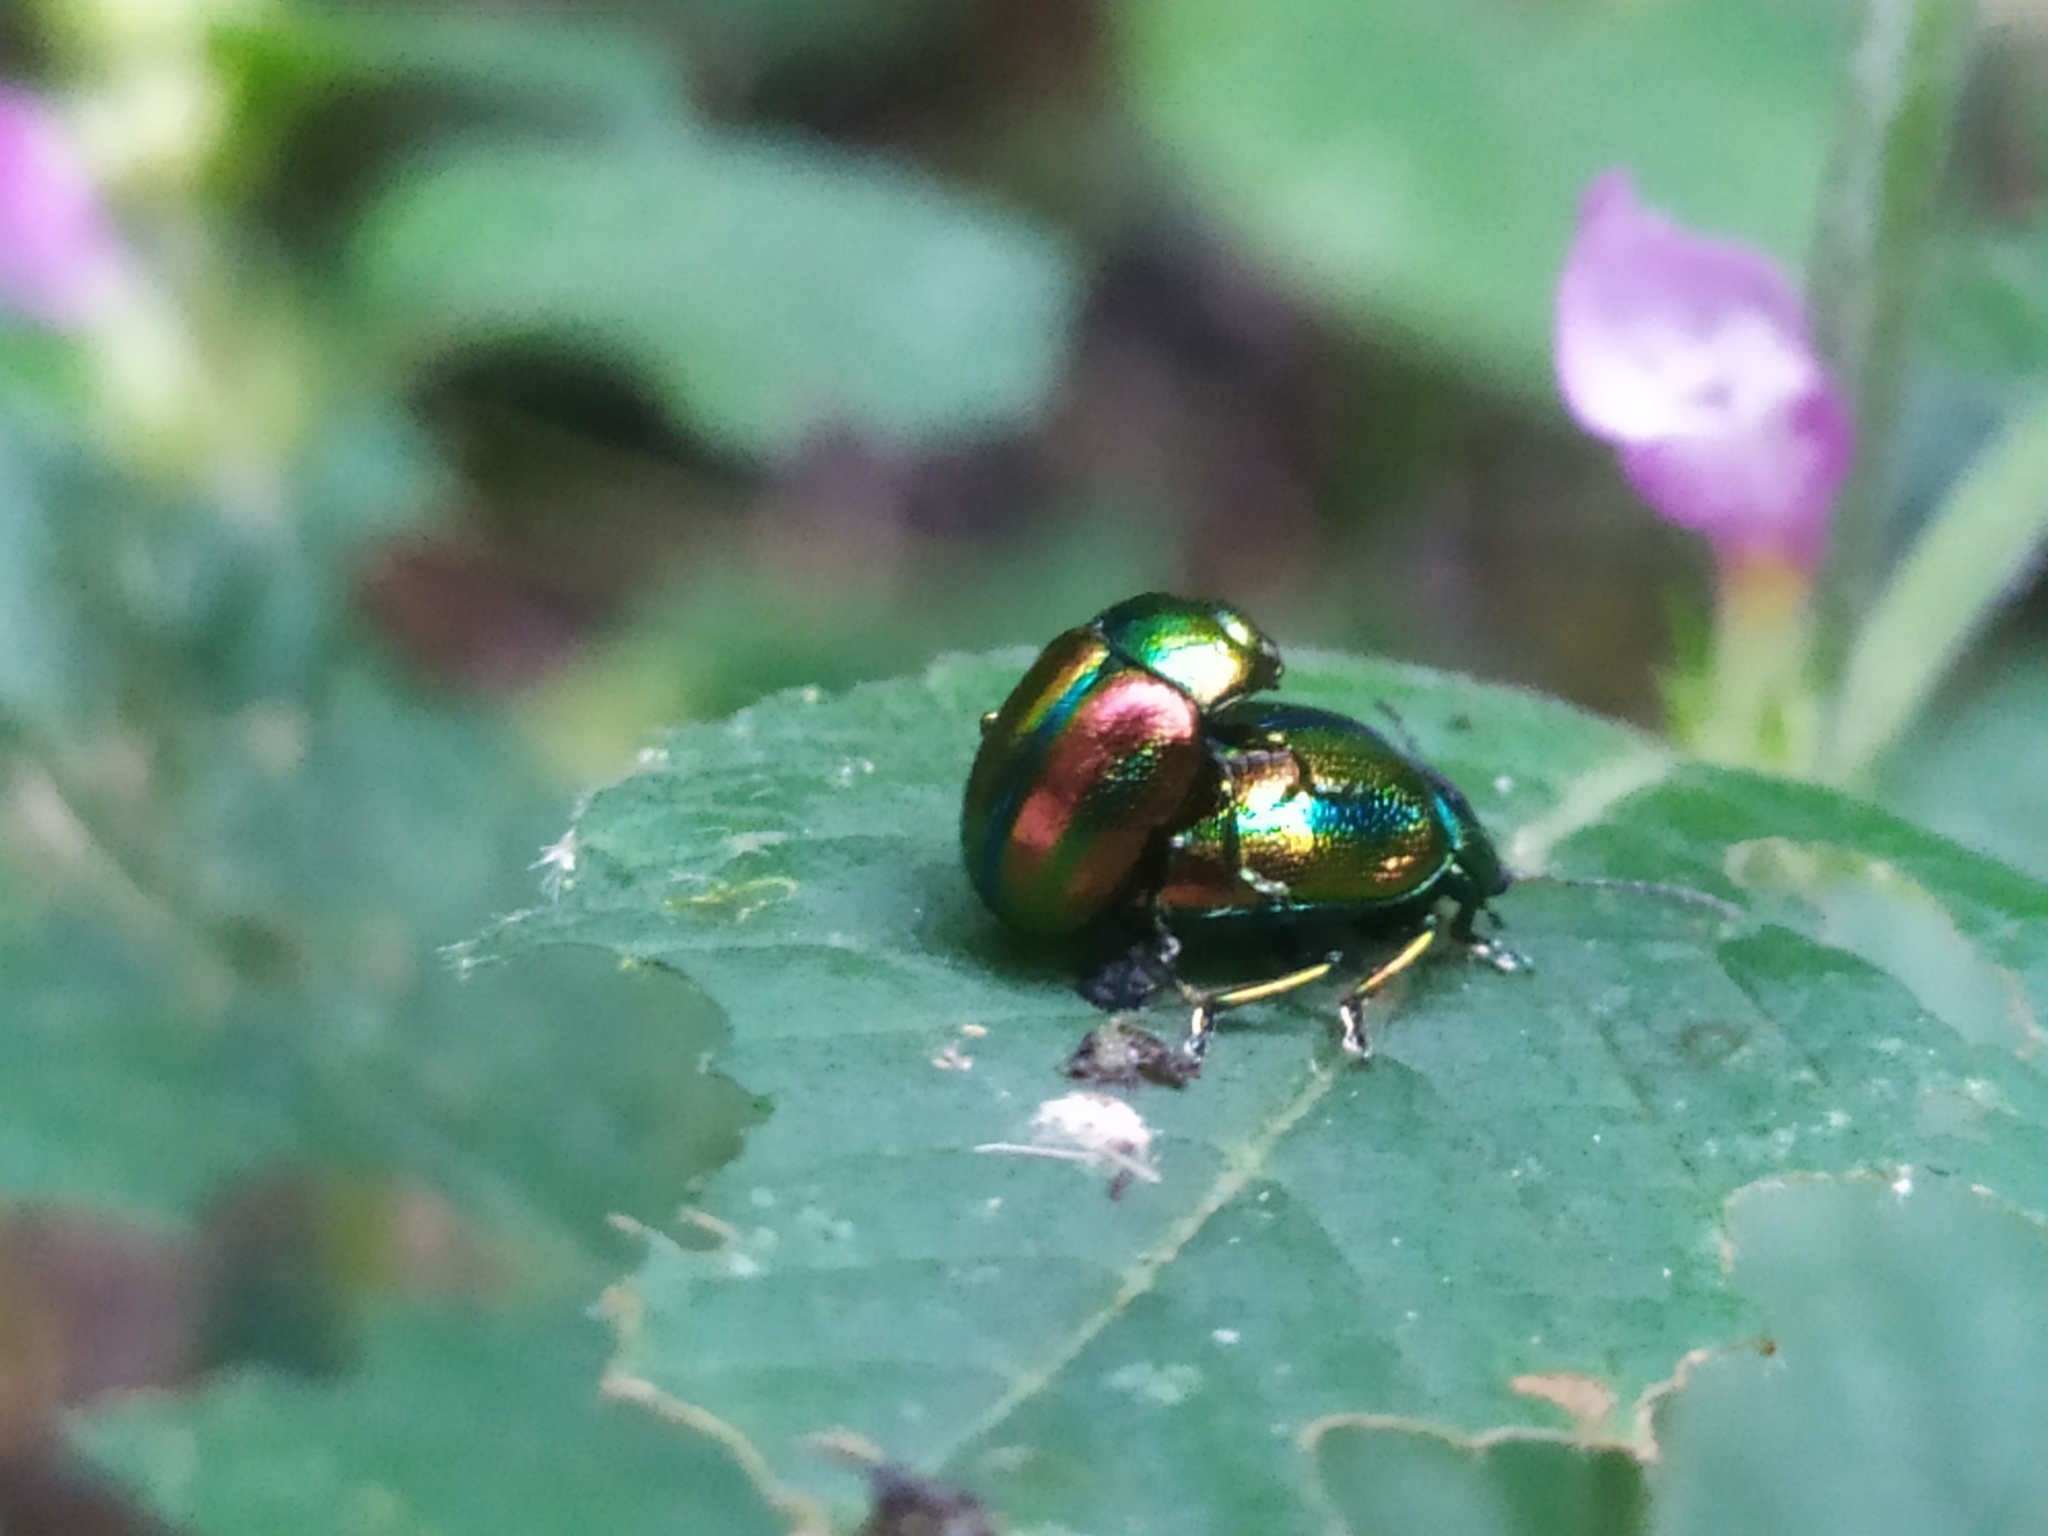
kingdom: Animalia
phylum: Arthropoda
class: Insecta
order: Coleoptera
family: Chrysomelidae
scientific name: Chrysomelidae
